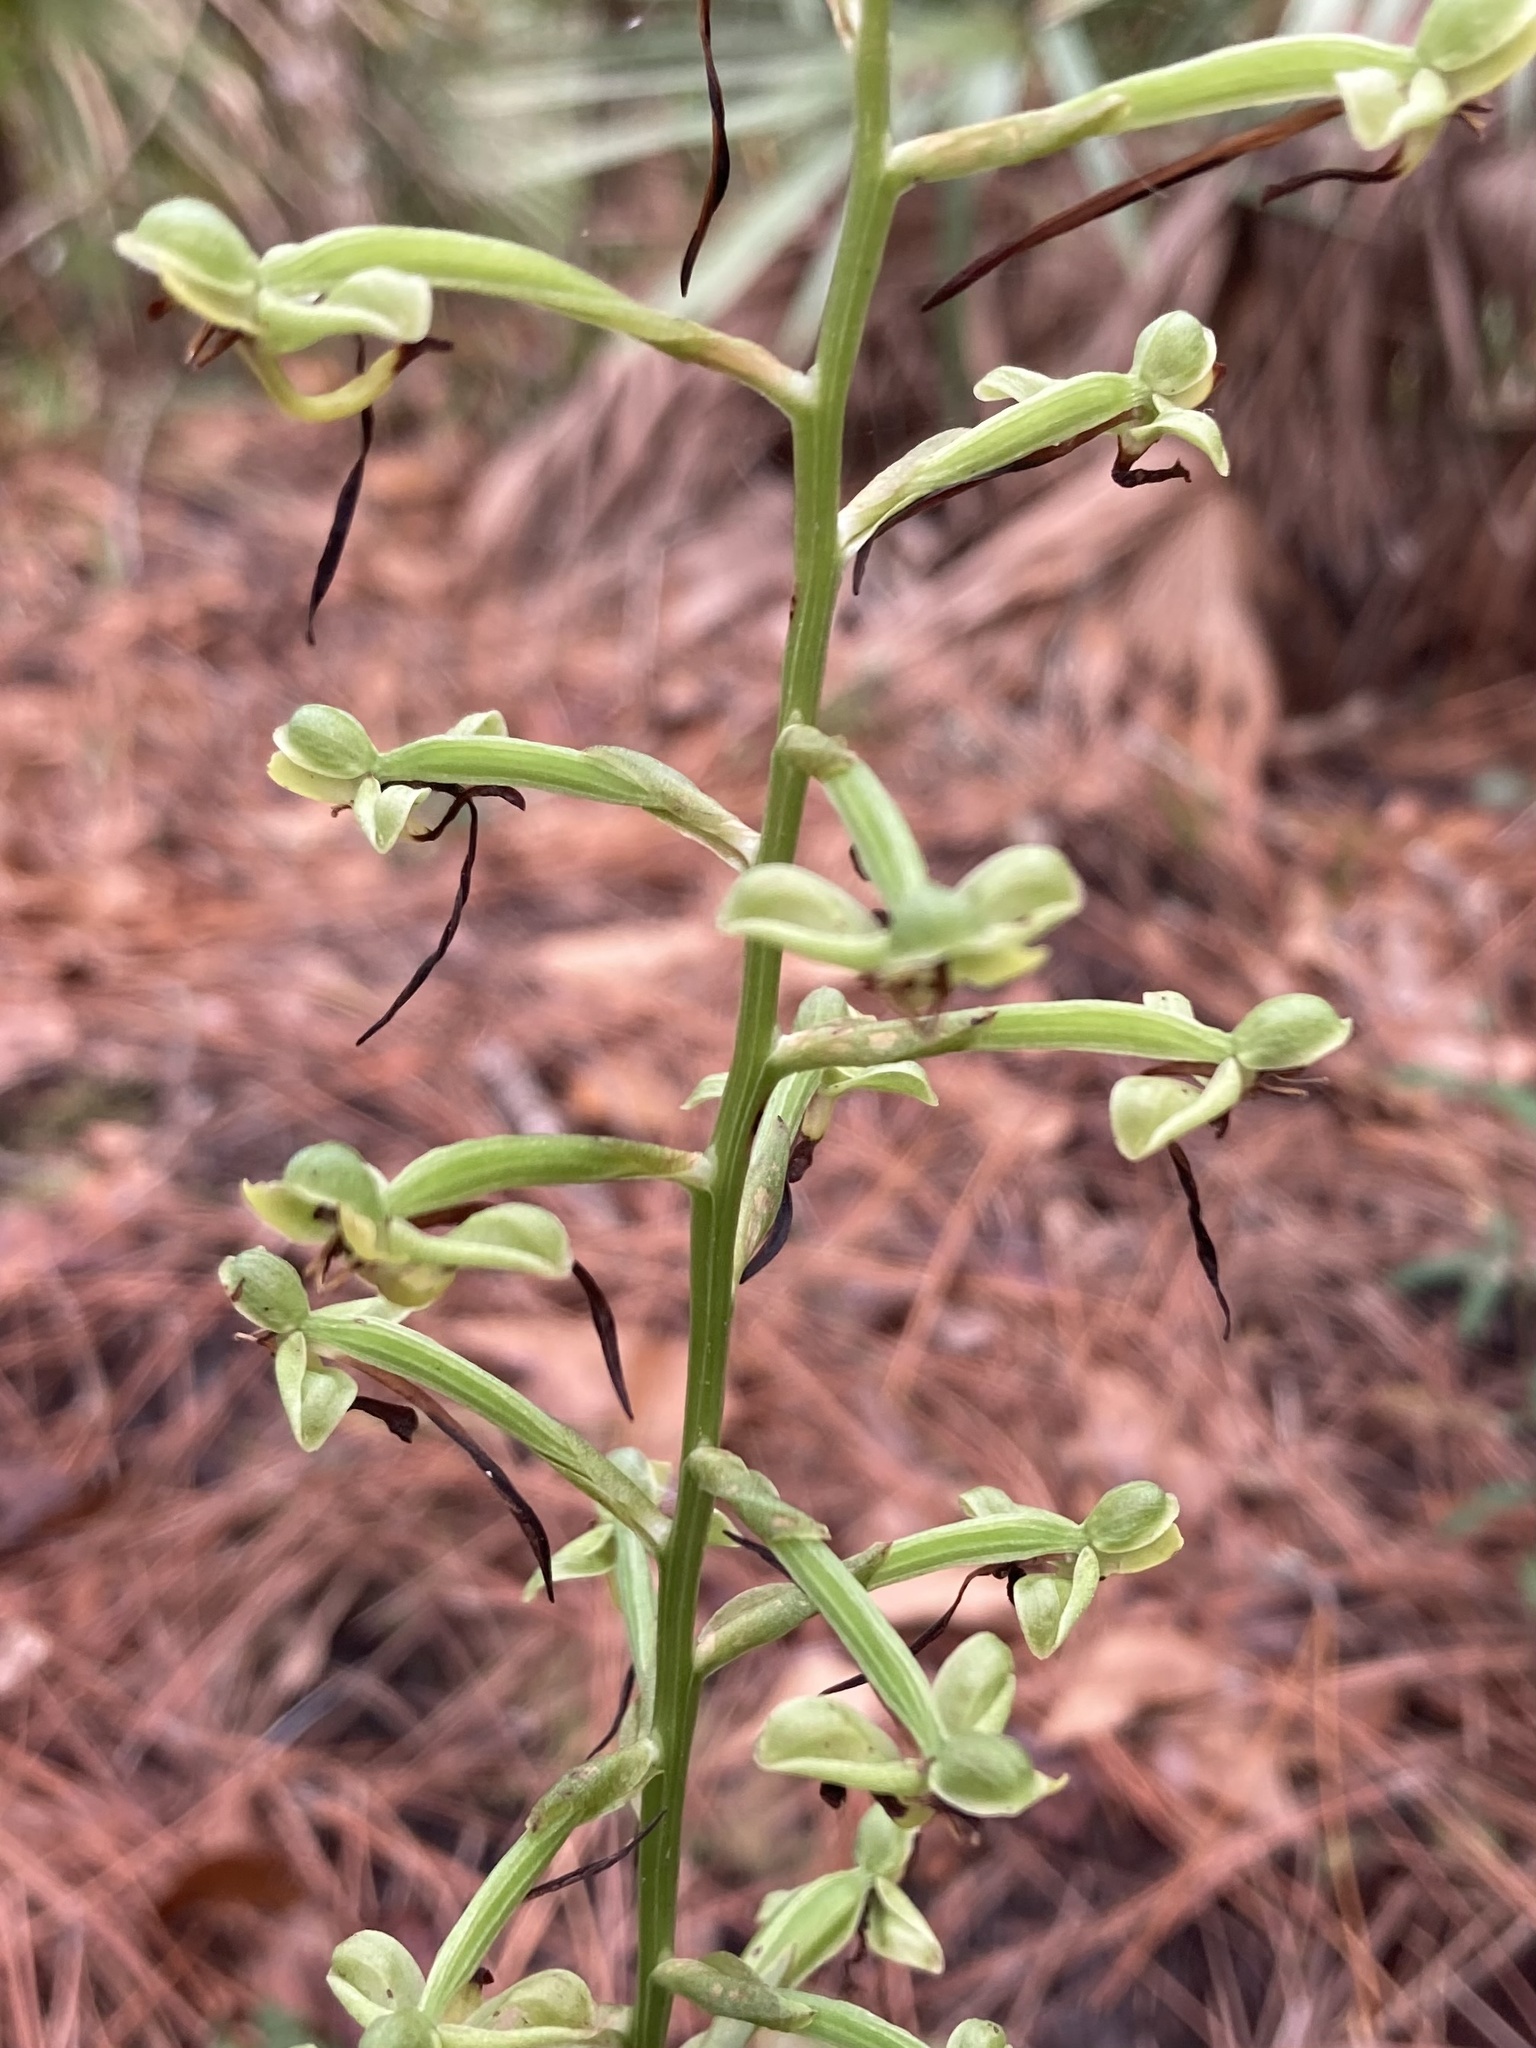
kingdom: Plantae
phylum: Tracheophyta
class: Liliopsida
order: Asparagales
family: Orchidaceae
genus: Habenaria
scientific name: Habenaria floribunda
